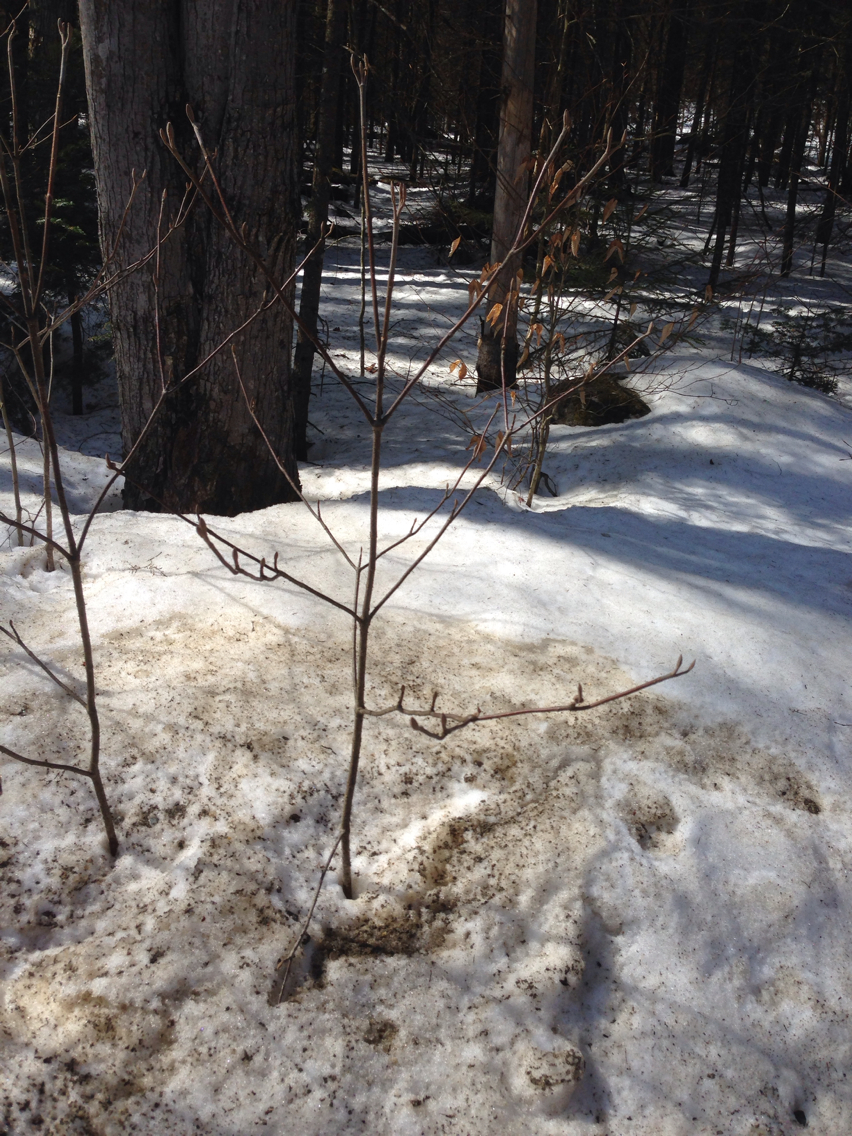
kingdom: Plantae
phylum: Tracheophyta
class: Magnoliopsida
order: Dipsacales
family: Viburnaceae
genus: Viburnum
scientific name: Viburnum lantanoides
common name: Hobblebush
